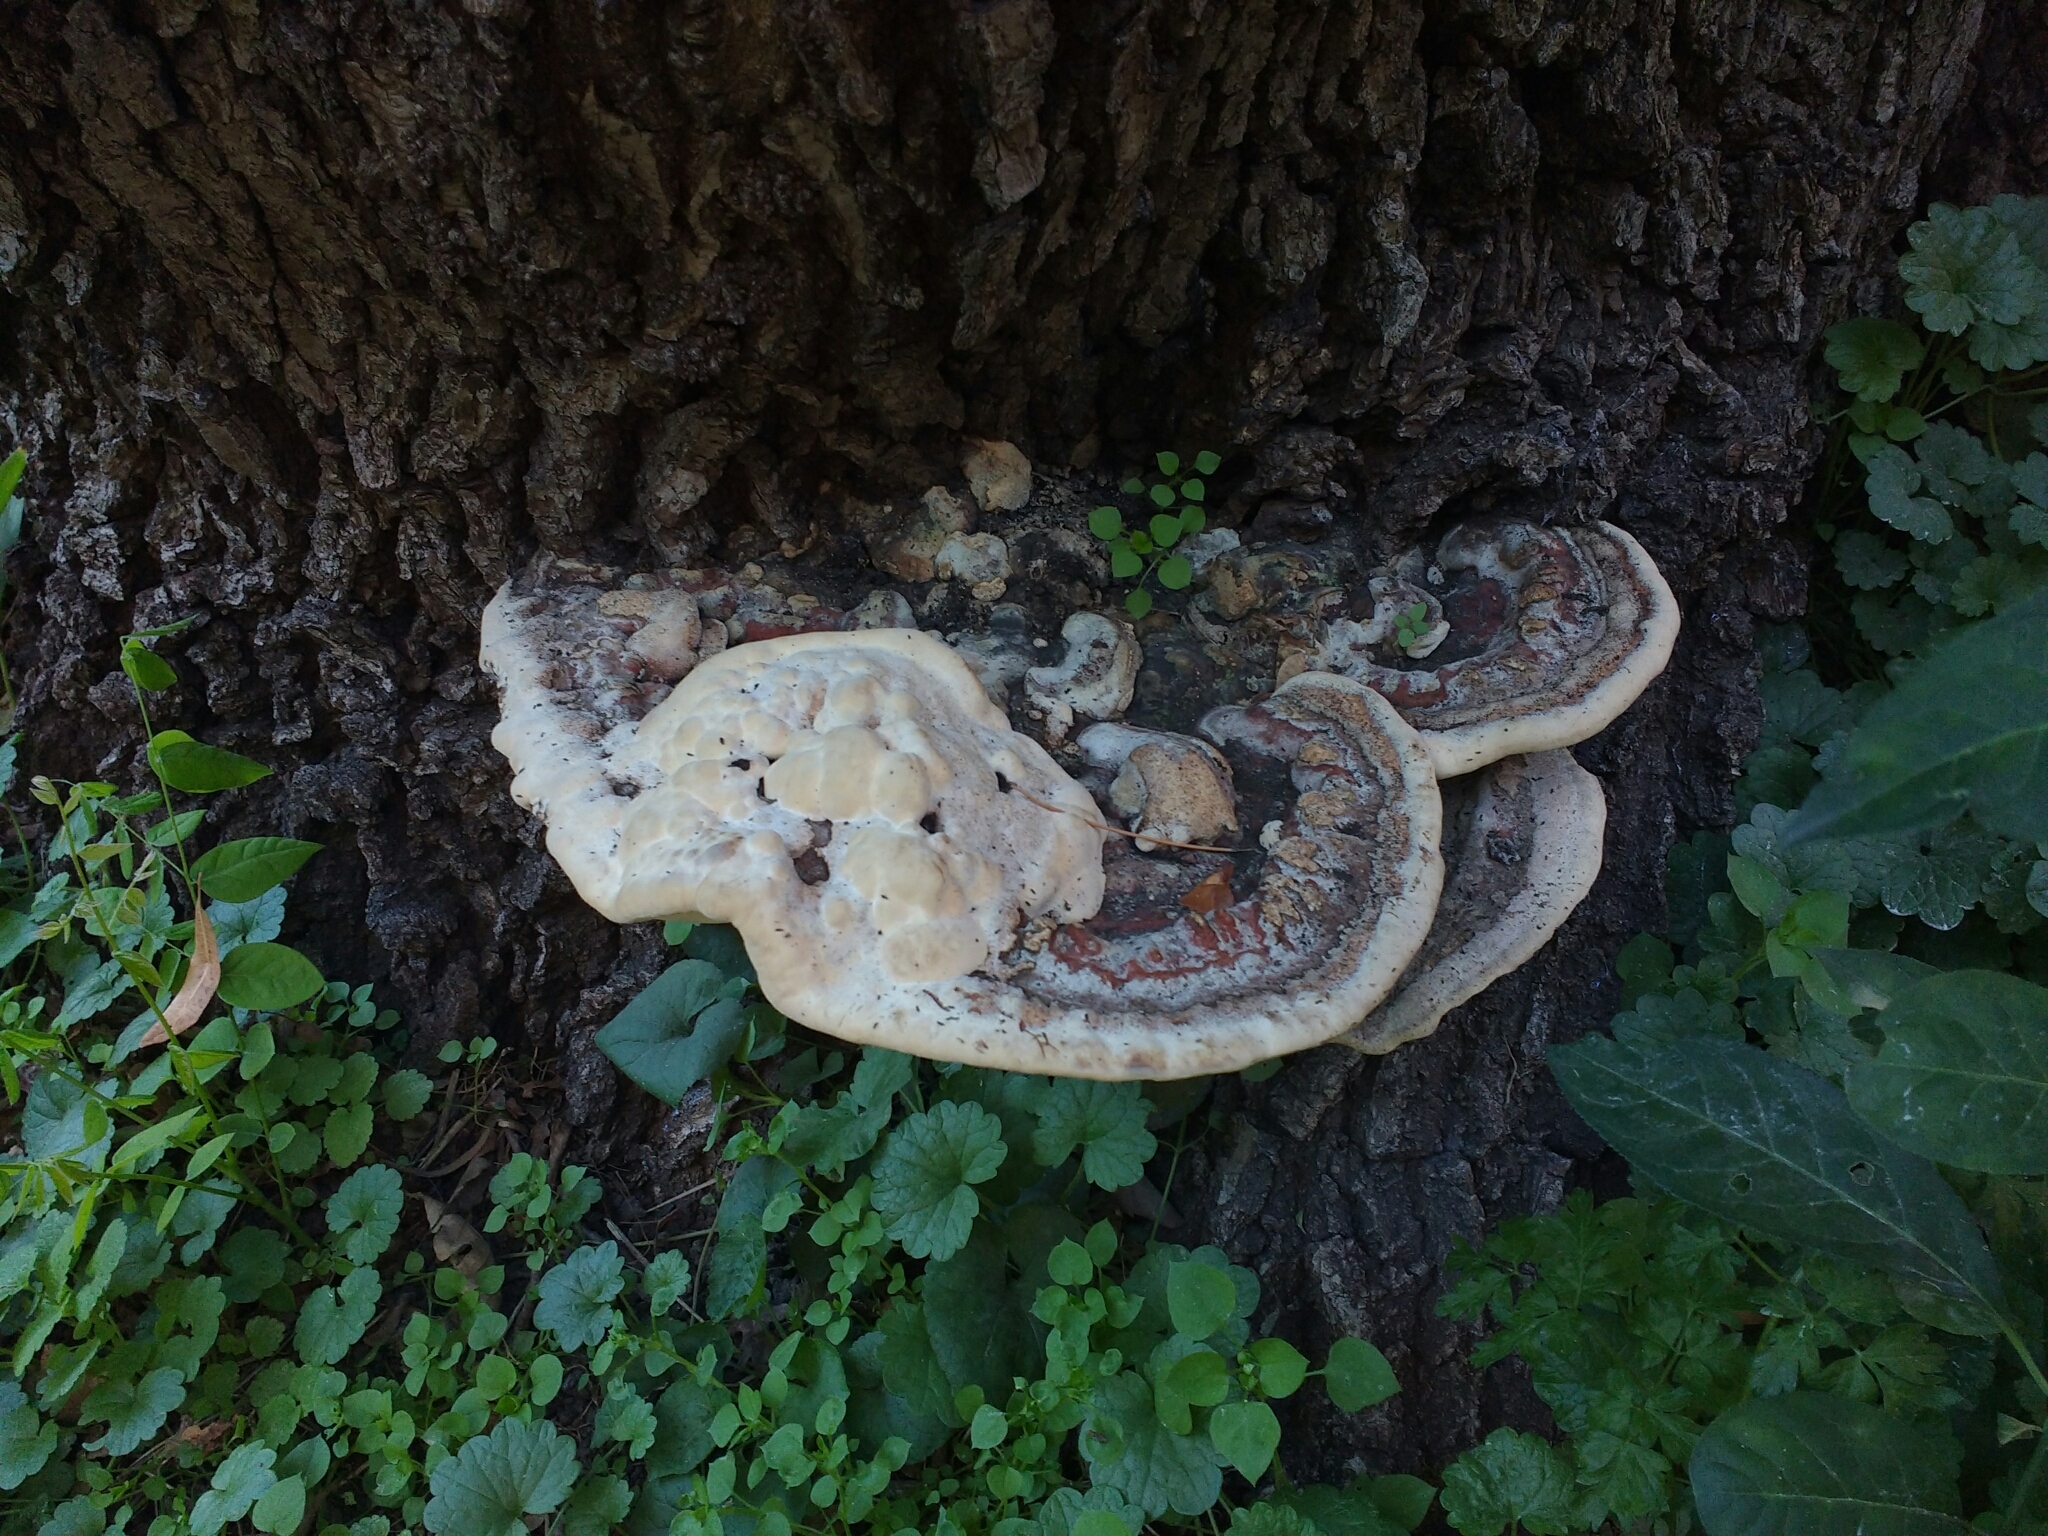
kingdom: Fungi
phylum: Basidiomycota
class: Agaricomycetes
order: Polyporales
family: Polyporaceae
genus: Vanderbylia
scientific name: Vanderbylia fraxinea
